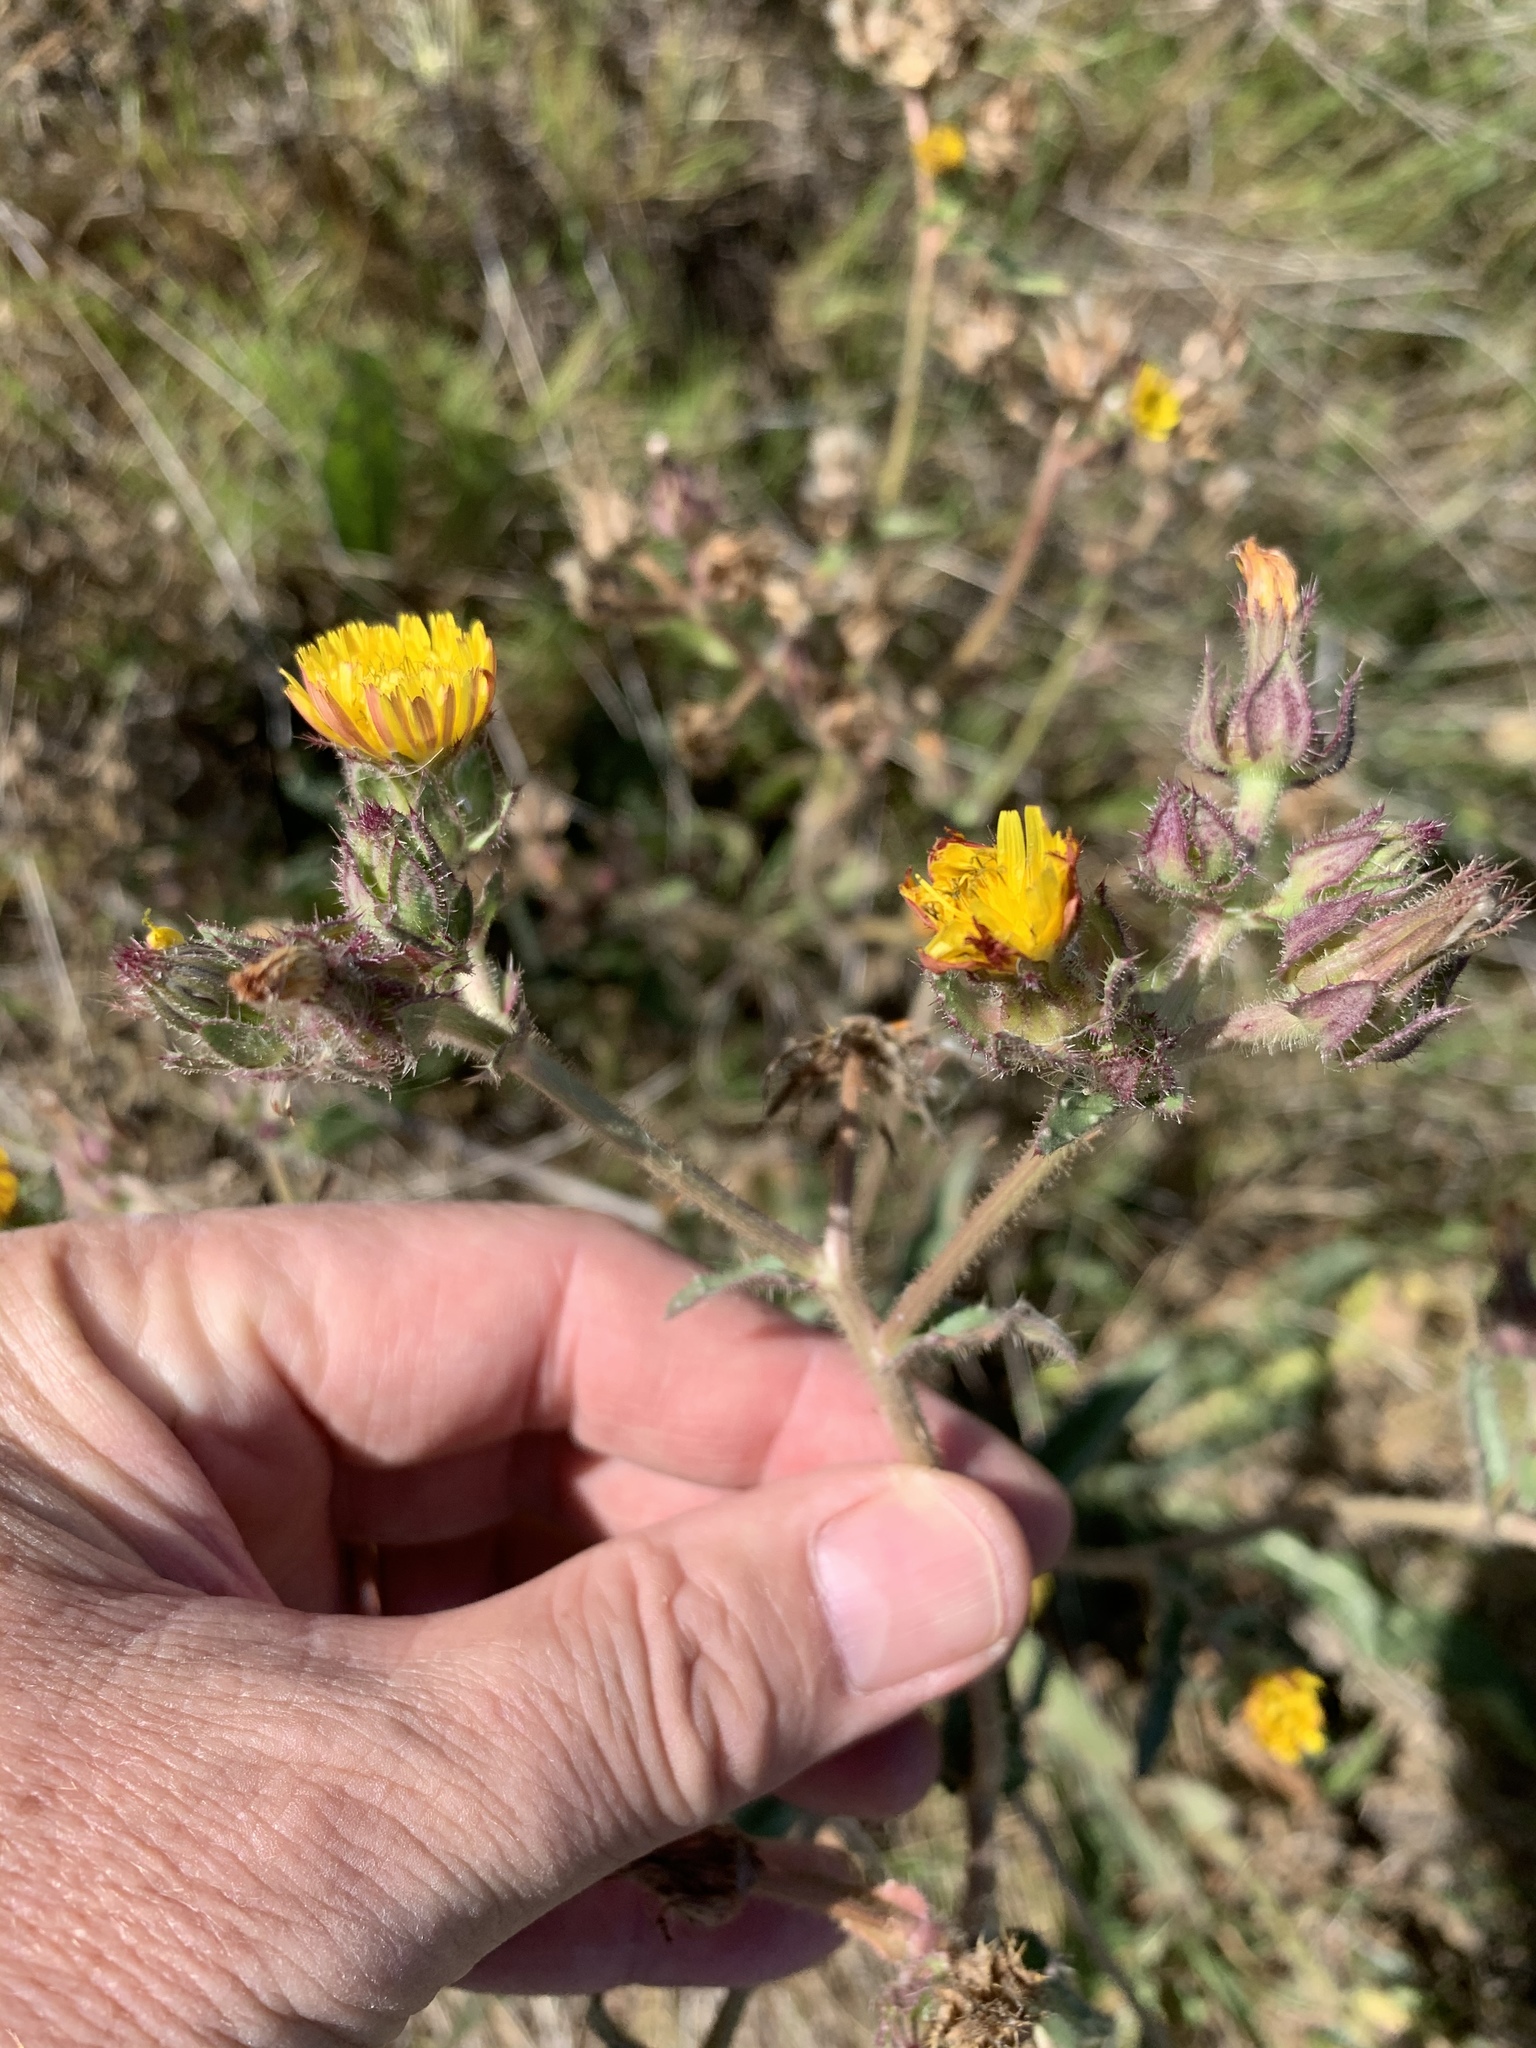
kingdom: Plantae
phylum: Tracheophyta
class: Magnoliopsida
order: Asterales
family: Asteraceae
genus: Helminthotheca
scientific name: Helminthotheca echioides
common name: Ox-tongue
